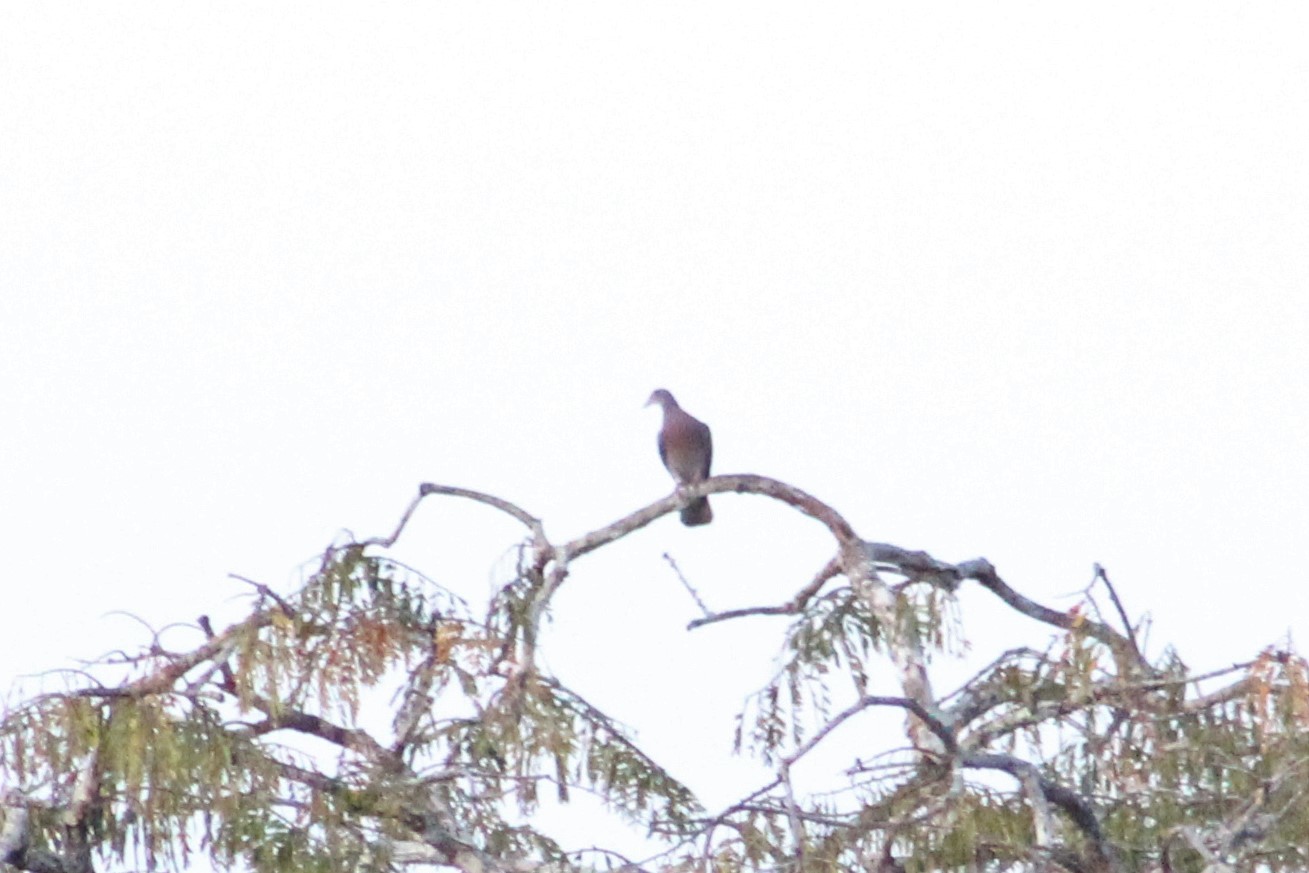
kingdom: Animalia
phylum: Chordata
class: Aves
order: Columbiformes
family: Columbidae
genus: Patagioenas
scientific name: Patagioenas cayennensis
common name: Pale-vented pigeon
